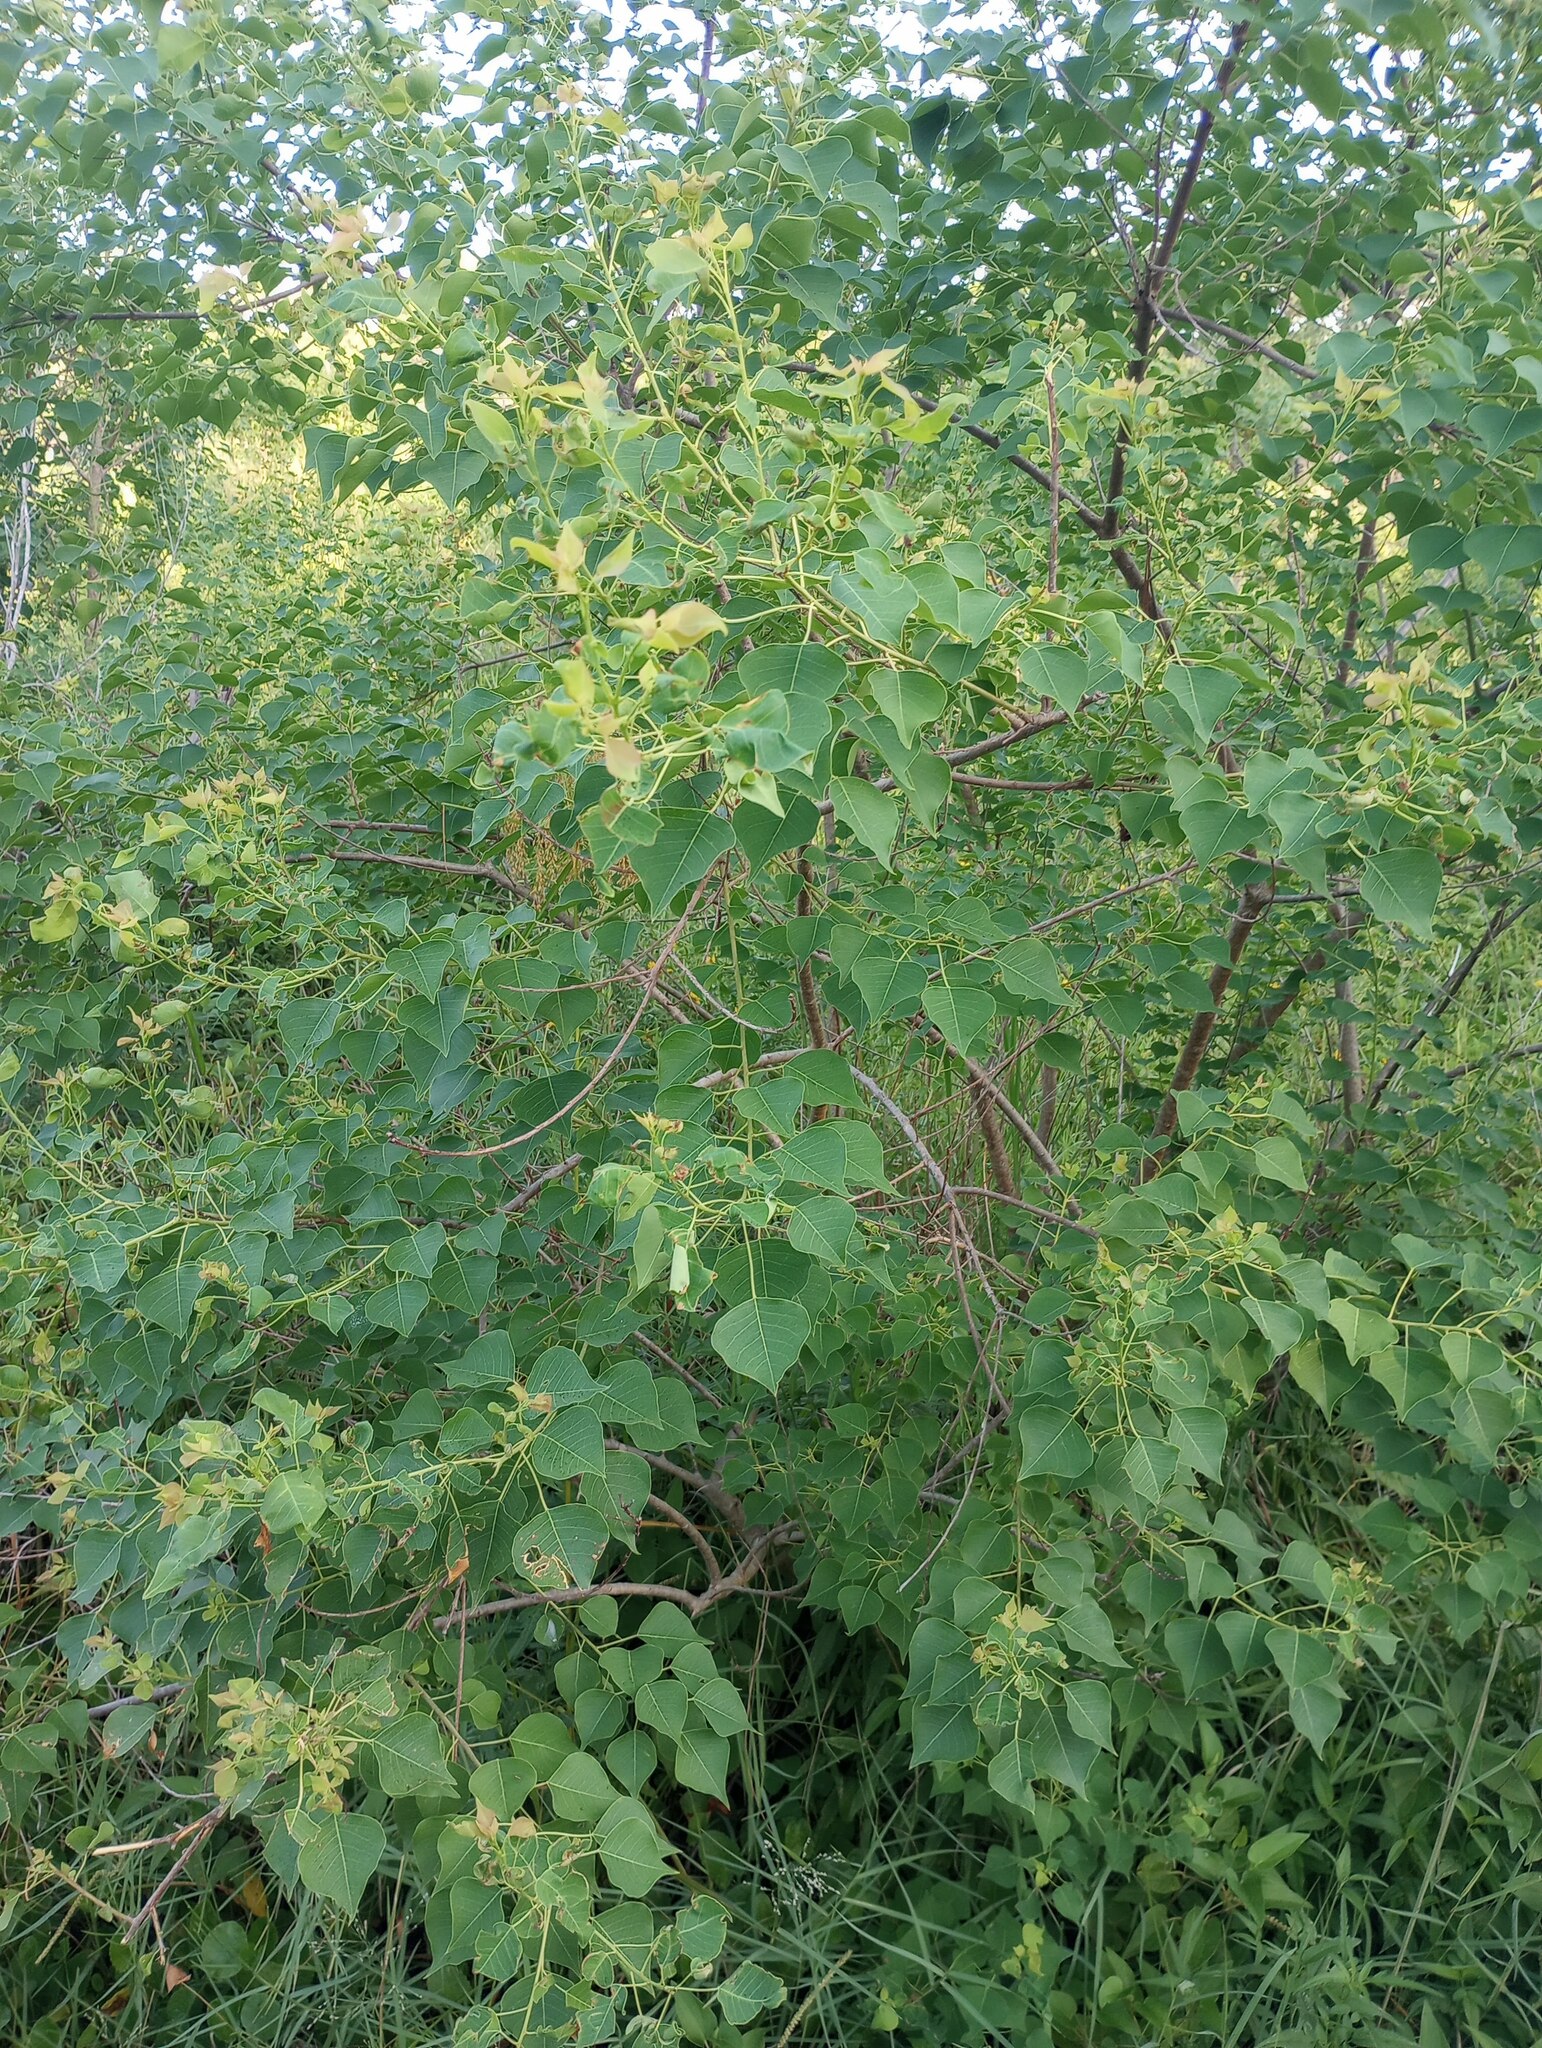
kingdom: Plantae
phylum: Tracheophyta
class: Magnoliopsida
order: Malpighiales
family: Euphorbiaceae
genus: Triadica
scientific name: Triadica sebifera
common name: Chinese tallow
